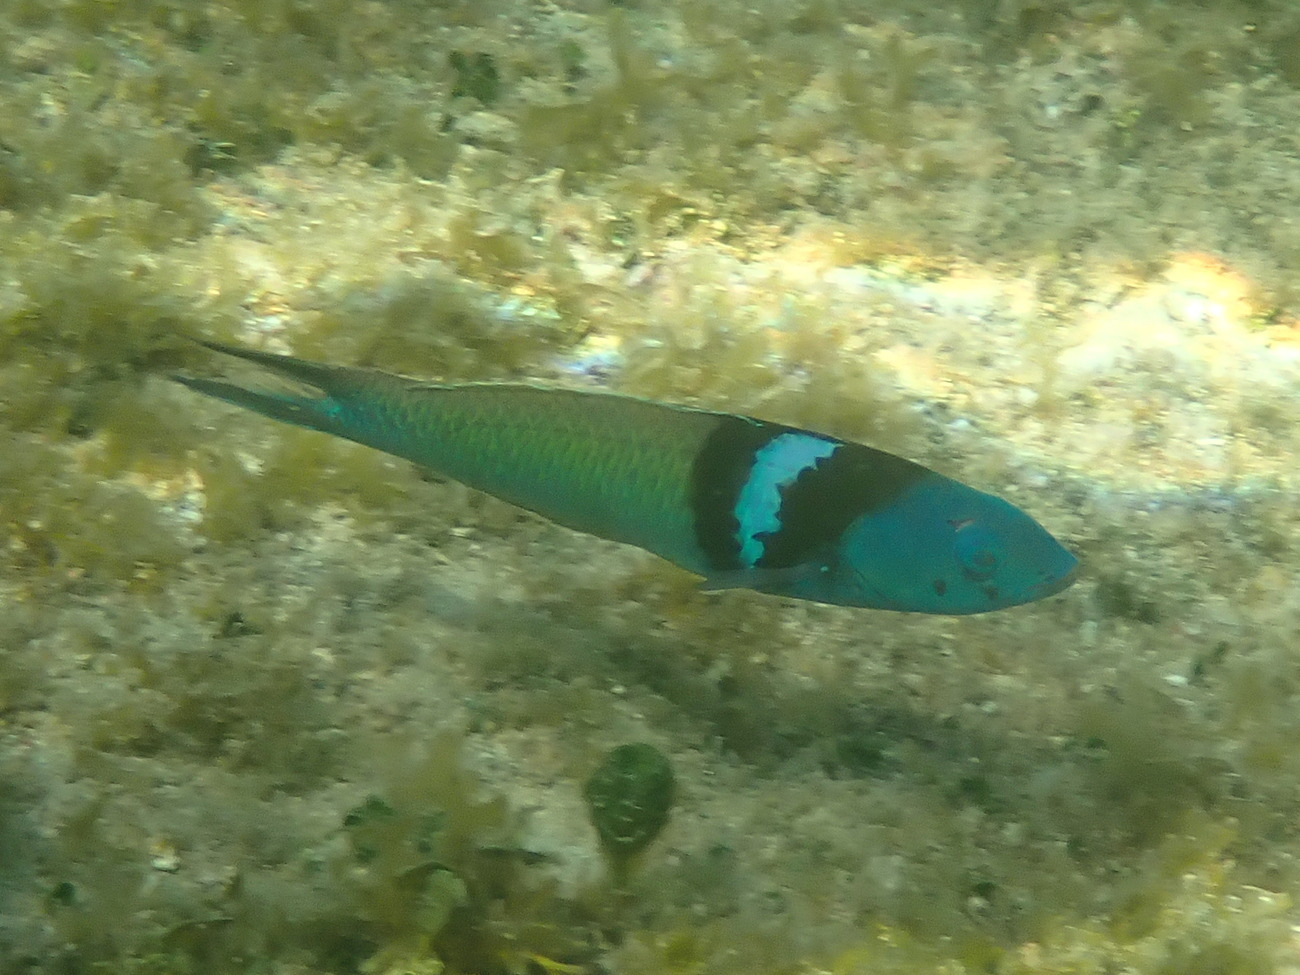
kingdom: Animalia
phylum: Chordata
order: Perciformes
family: Labridae
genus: Thalassoma
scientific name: Thalassoma bifasciatum
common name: Bluehead wrasse
